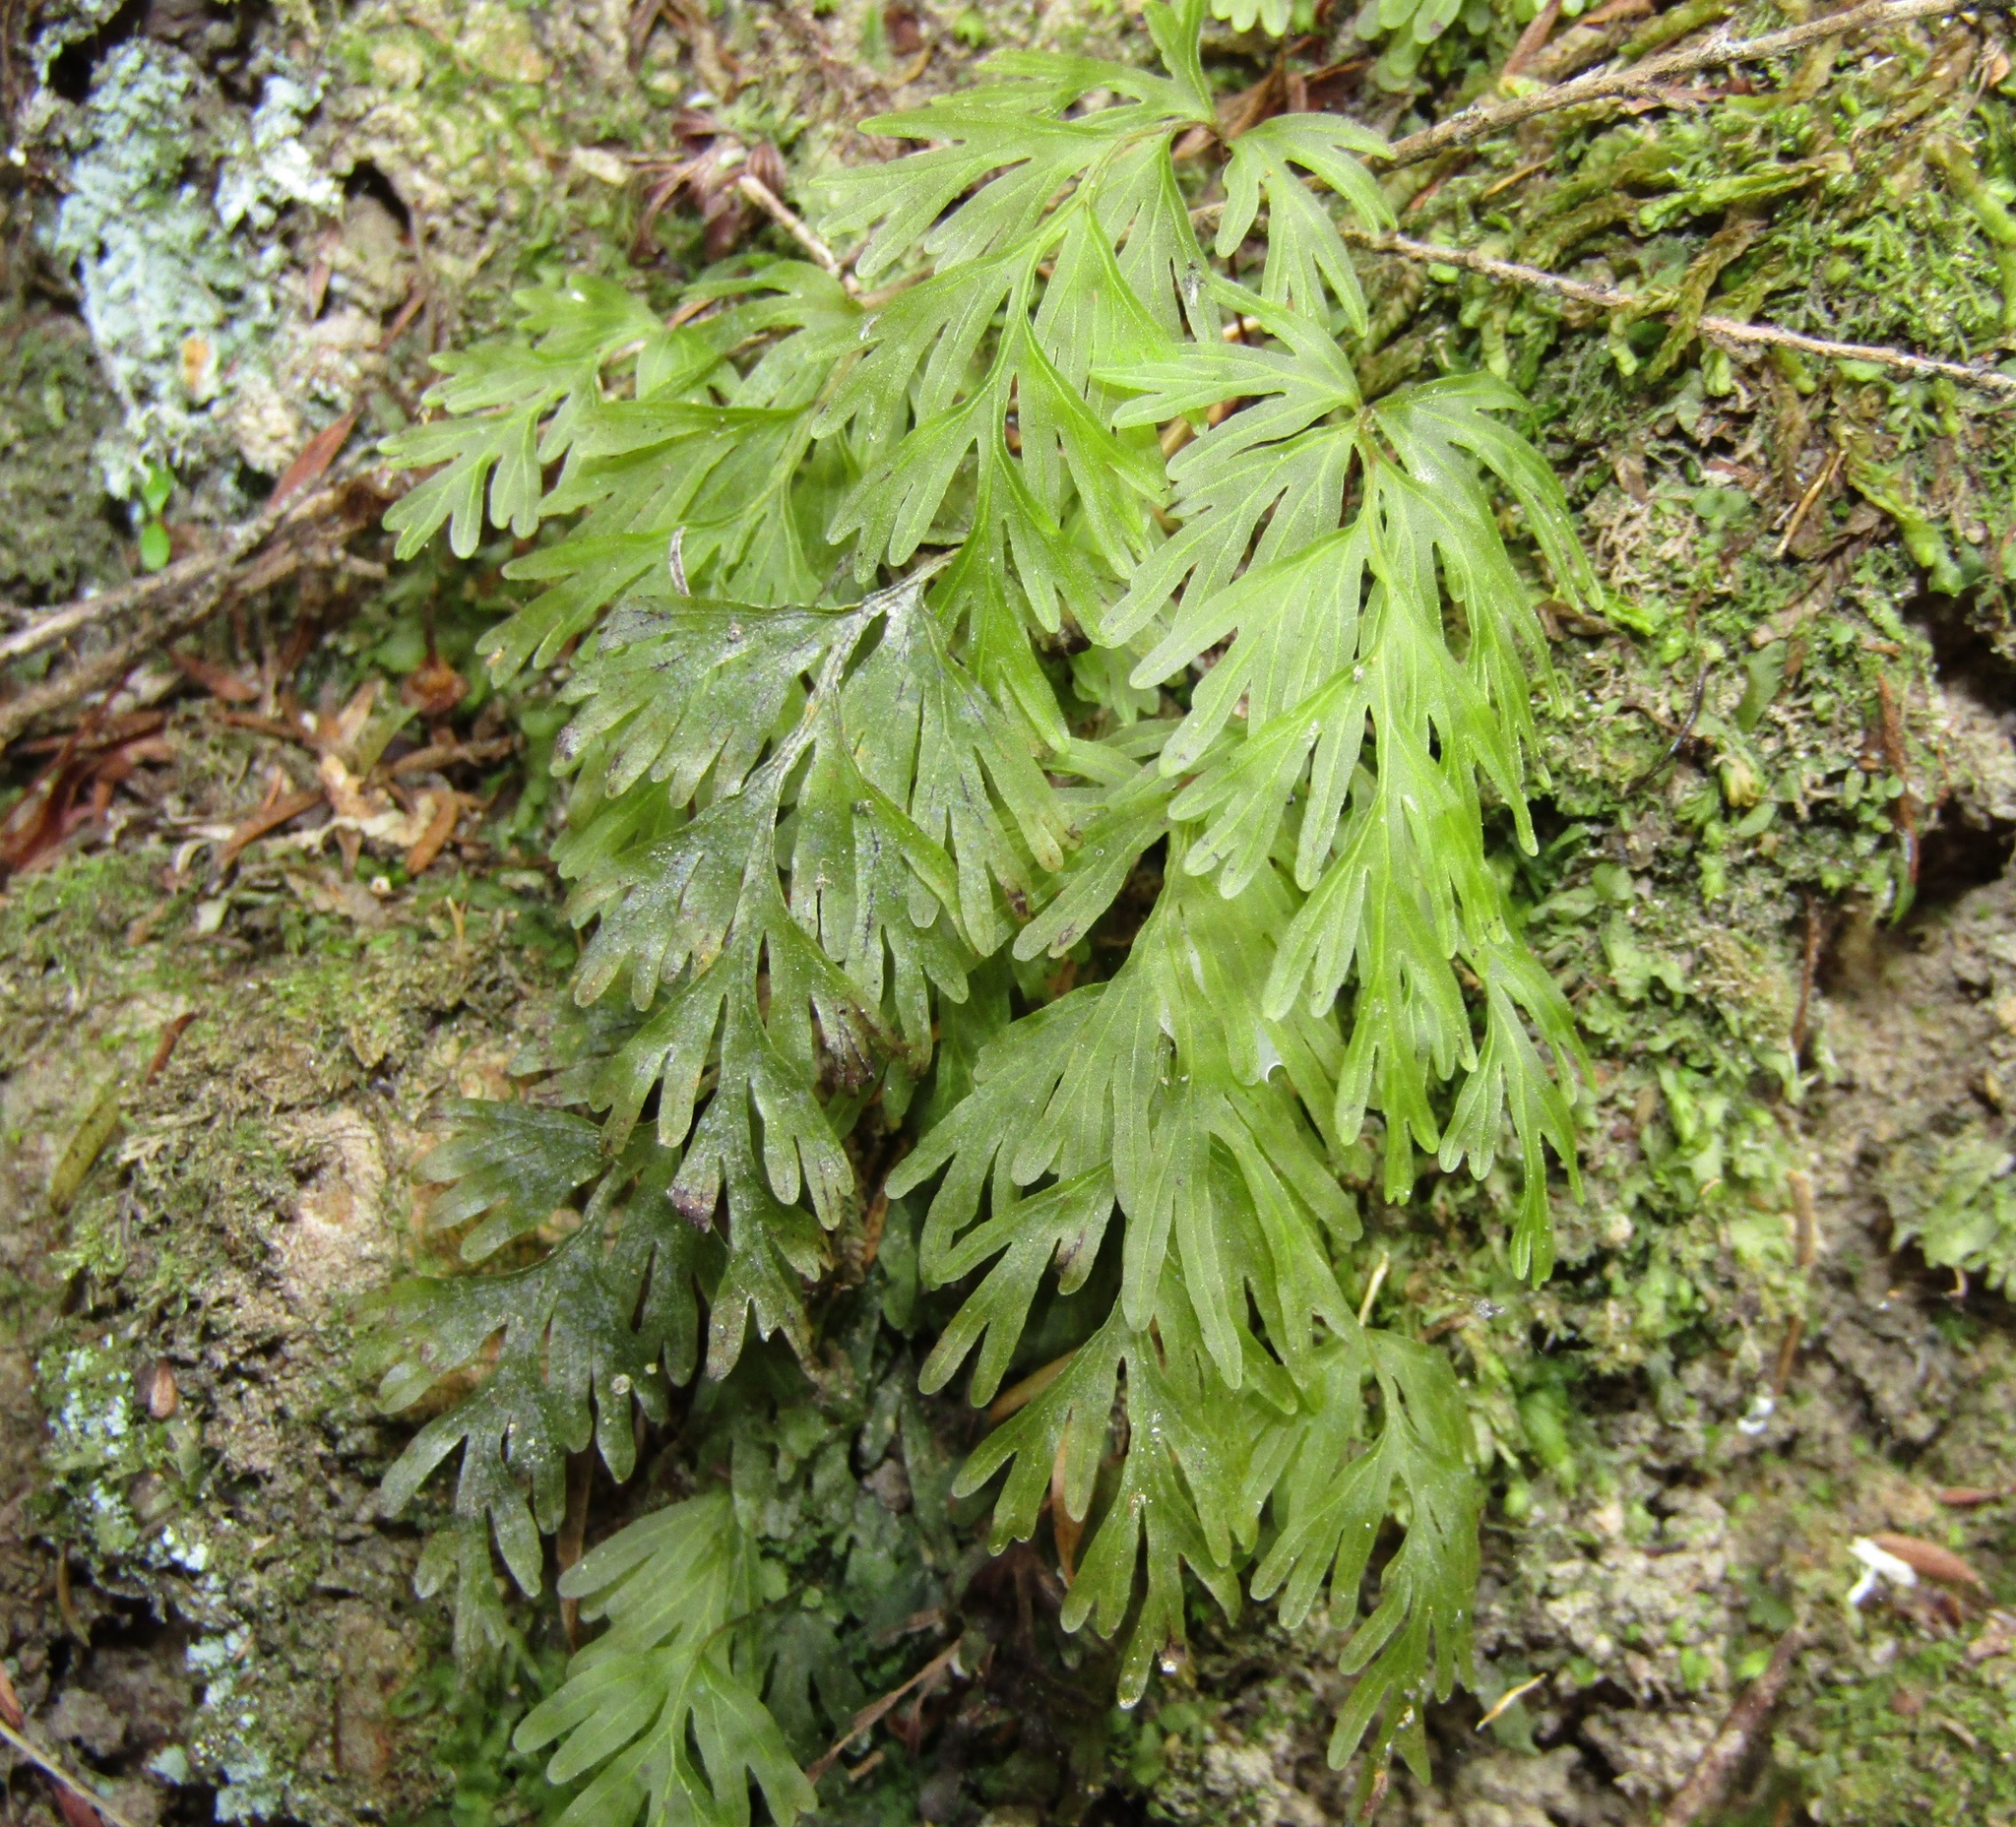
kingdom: Plantae
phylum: Tracheophyta
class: Polypodiopsida
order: Hymenophyllales
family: Hymenophyllaceae
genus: Hymenophyllum
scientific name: Hymenophyllum demissum
